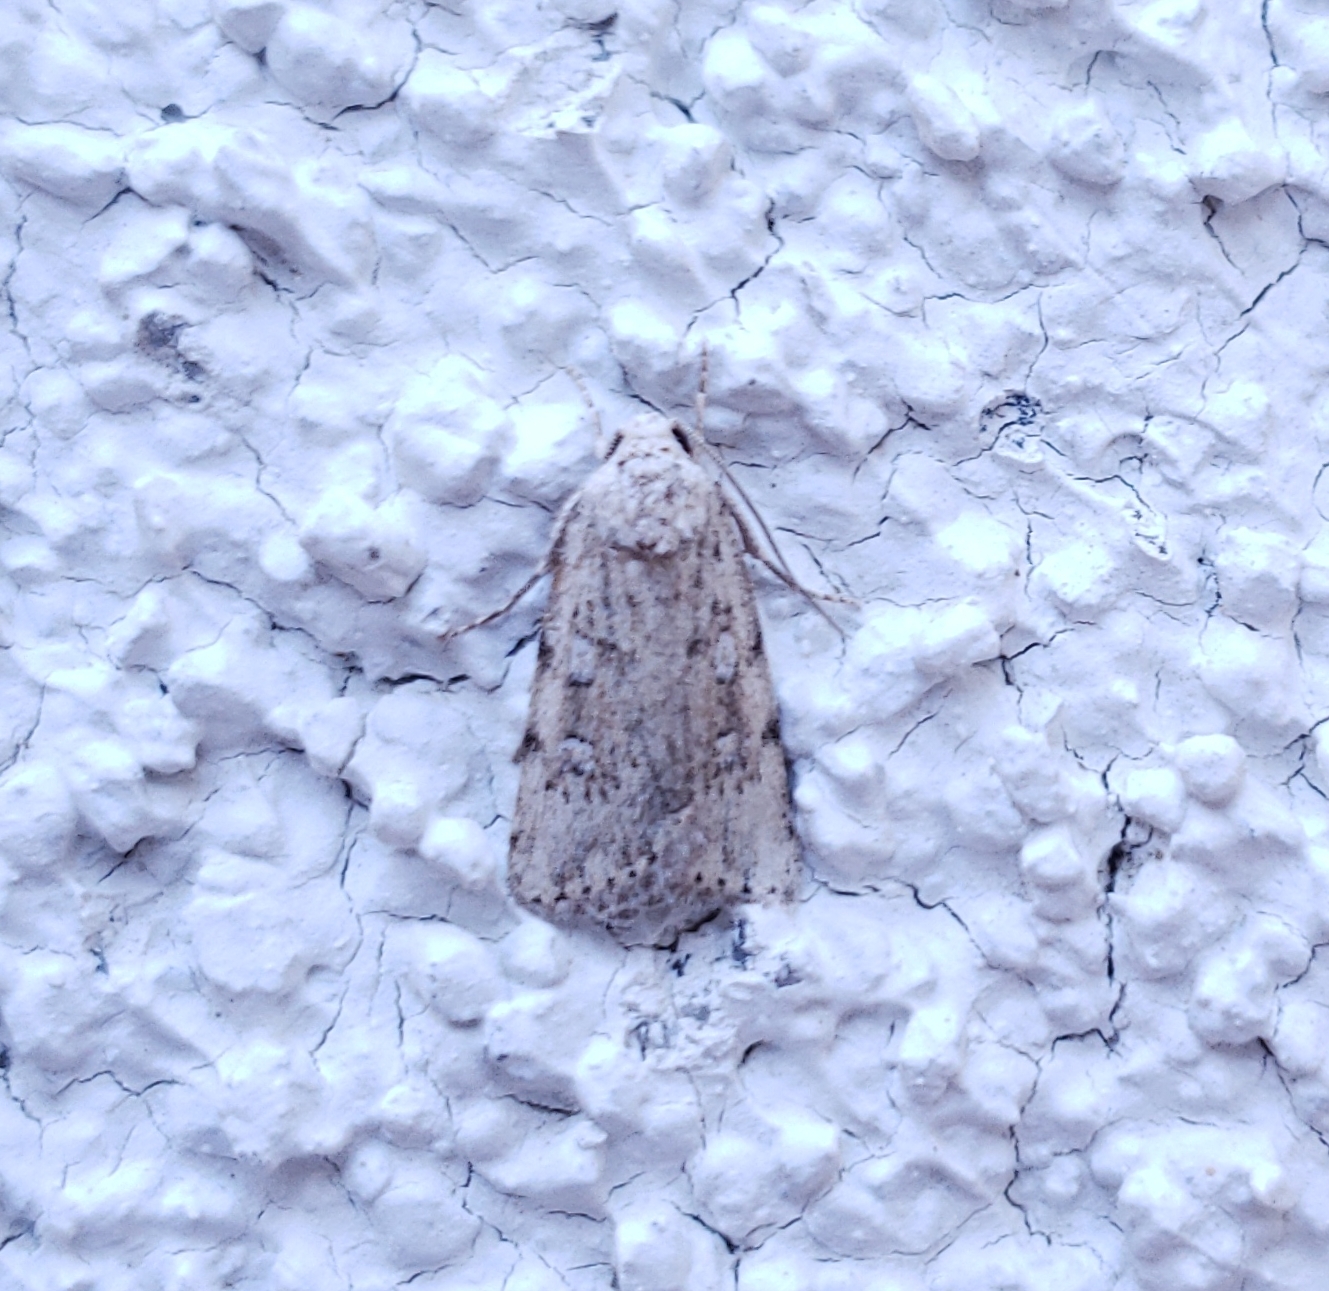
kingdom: Animalia
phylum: Arthropoda
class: Insecta
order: Lepidoptera
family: Noctuidae
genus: Fotella
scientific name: Fotella notalis
